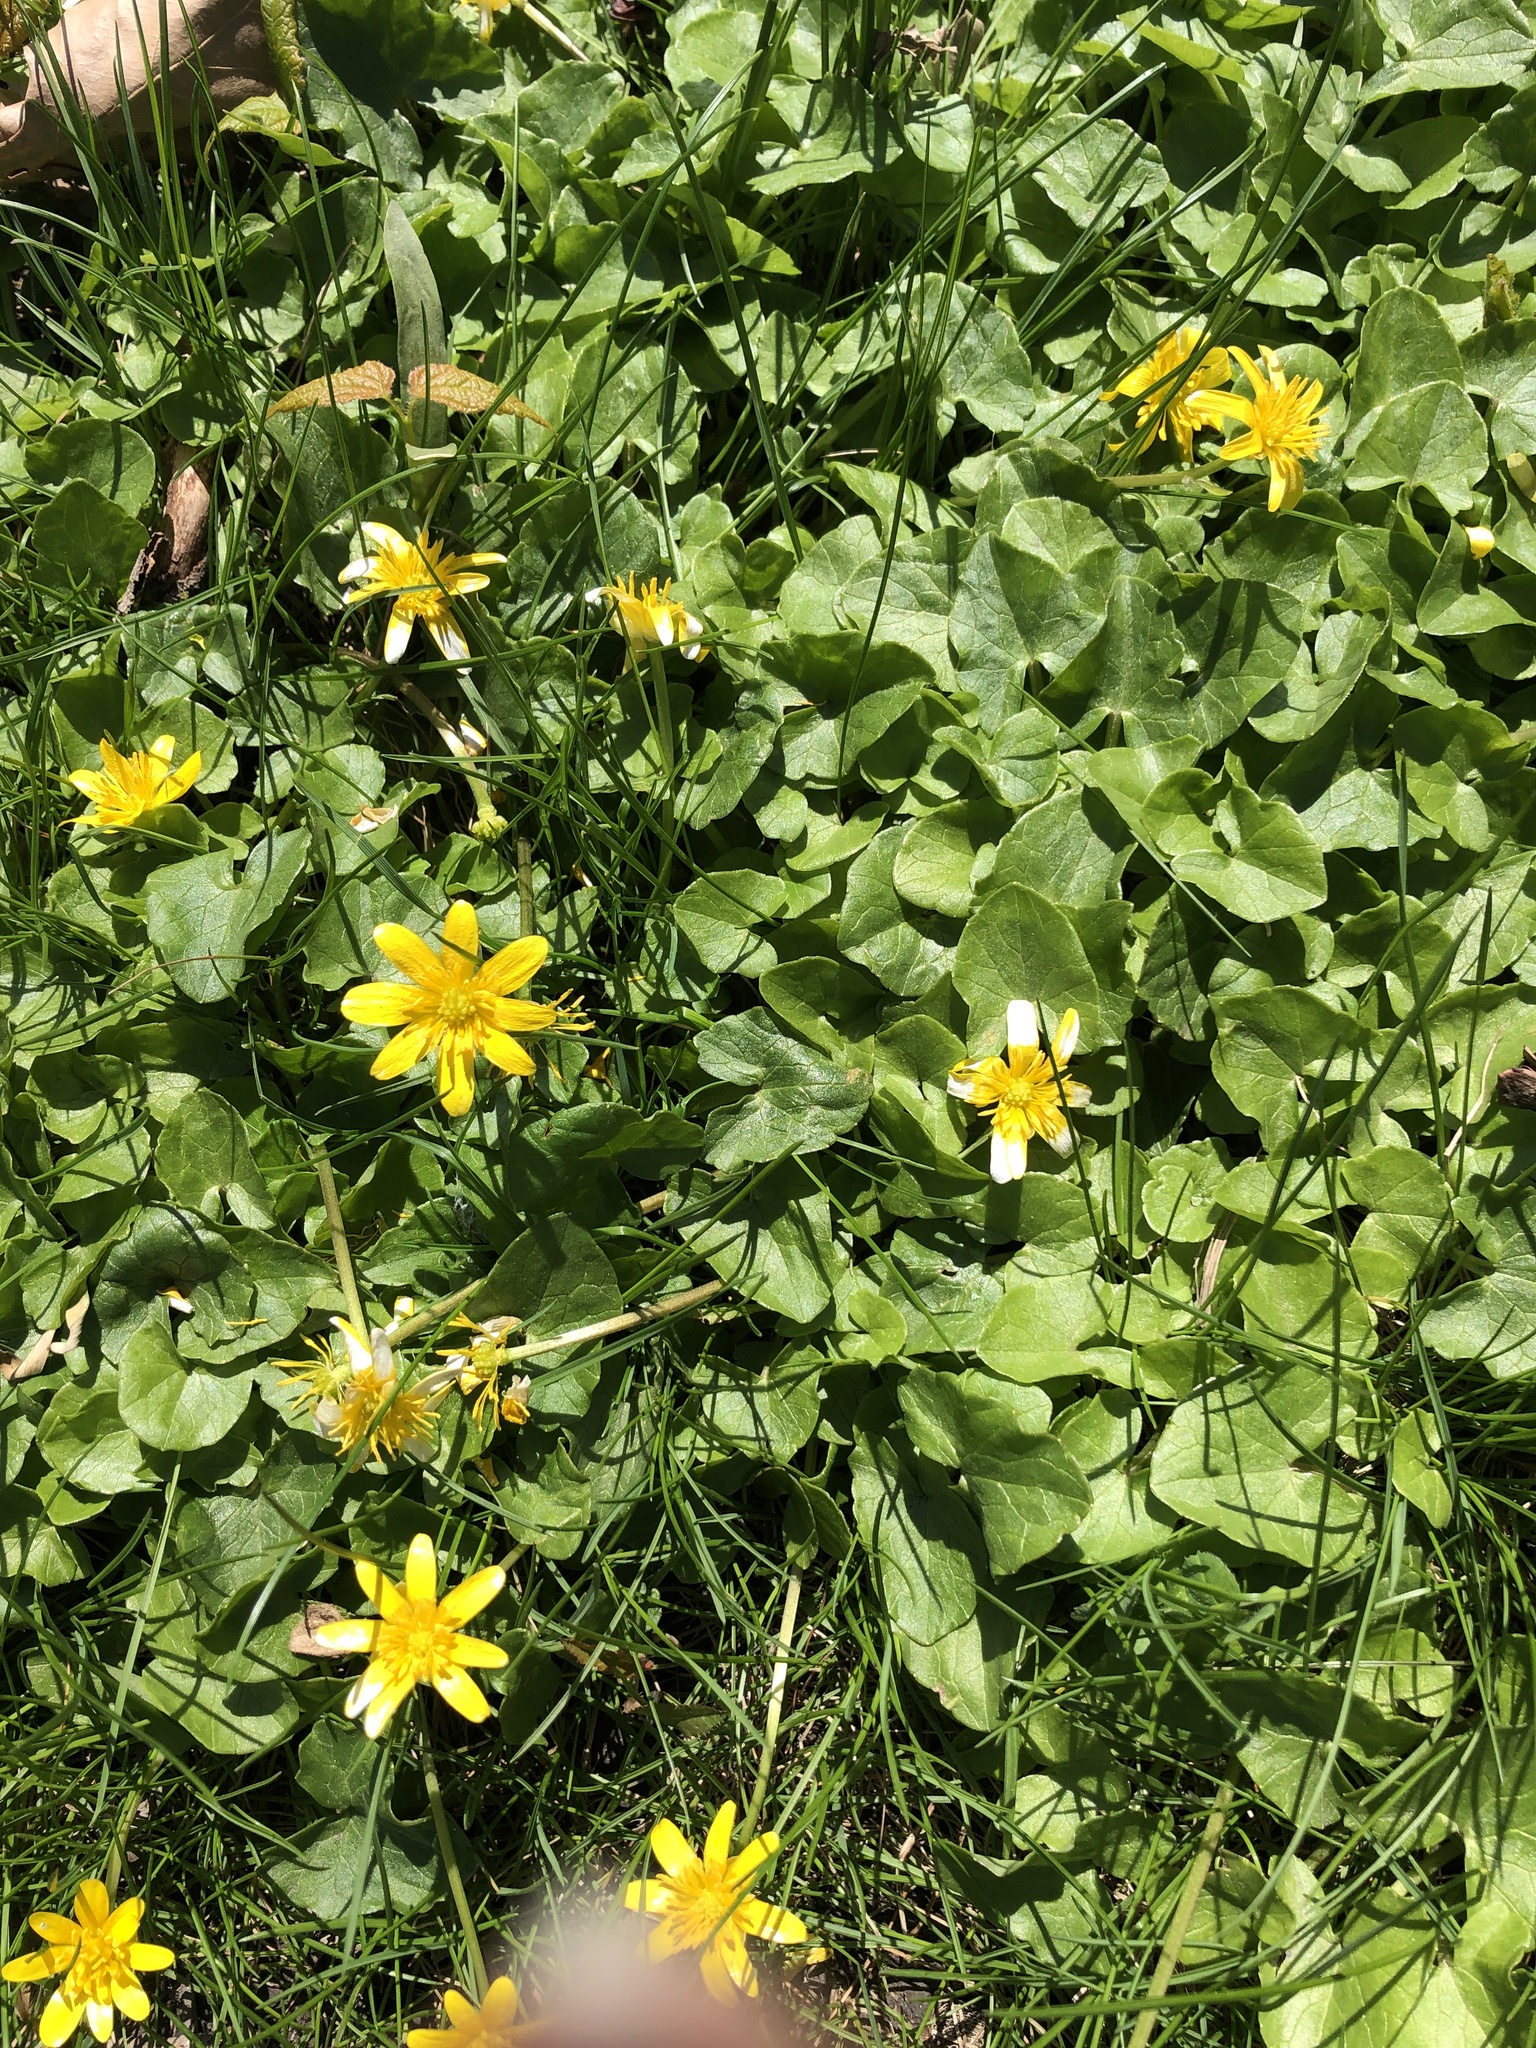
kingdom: Plantae
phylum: Tracheophyta
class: Magnoliopsida
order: Ranunculales
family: Ranunculaceae
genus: Ficaria
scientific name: Ficaria verna
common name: Lesser celandine
